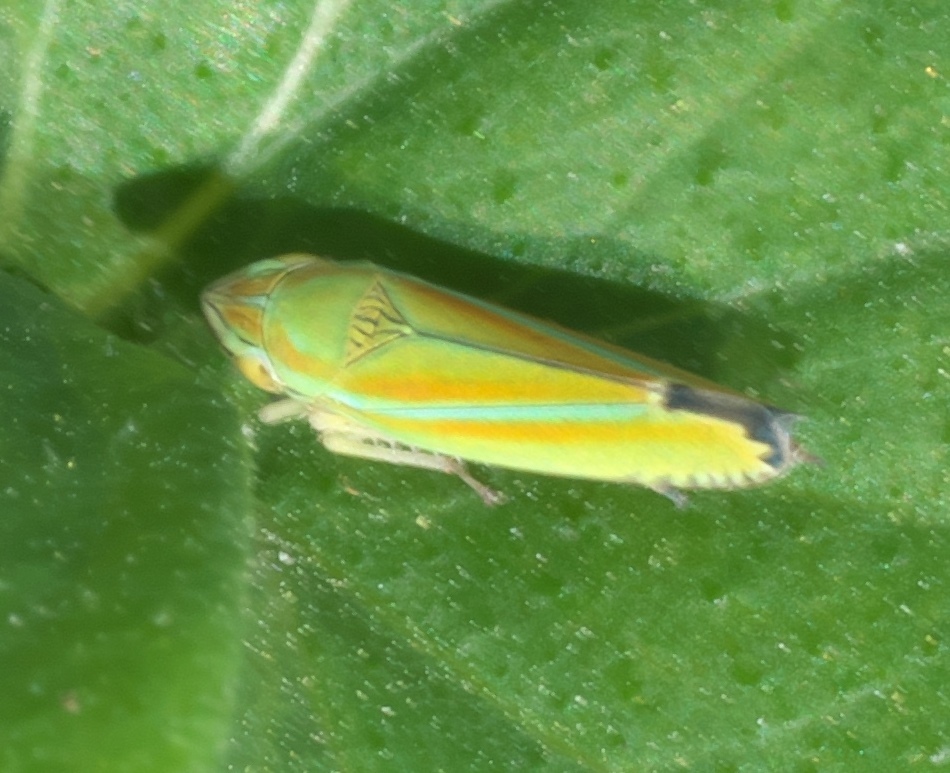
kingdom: Animalia
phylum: Arthropoda
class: Insecta
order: Hemiptera
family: Cicadellidae
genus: Graphocephala
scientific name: Graphocephala versuta
